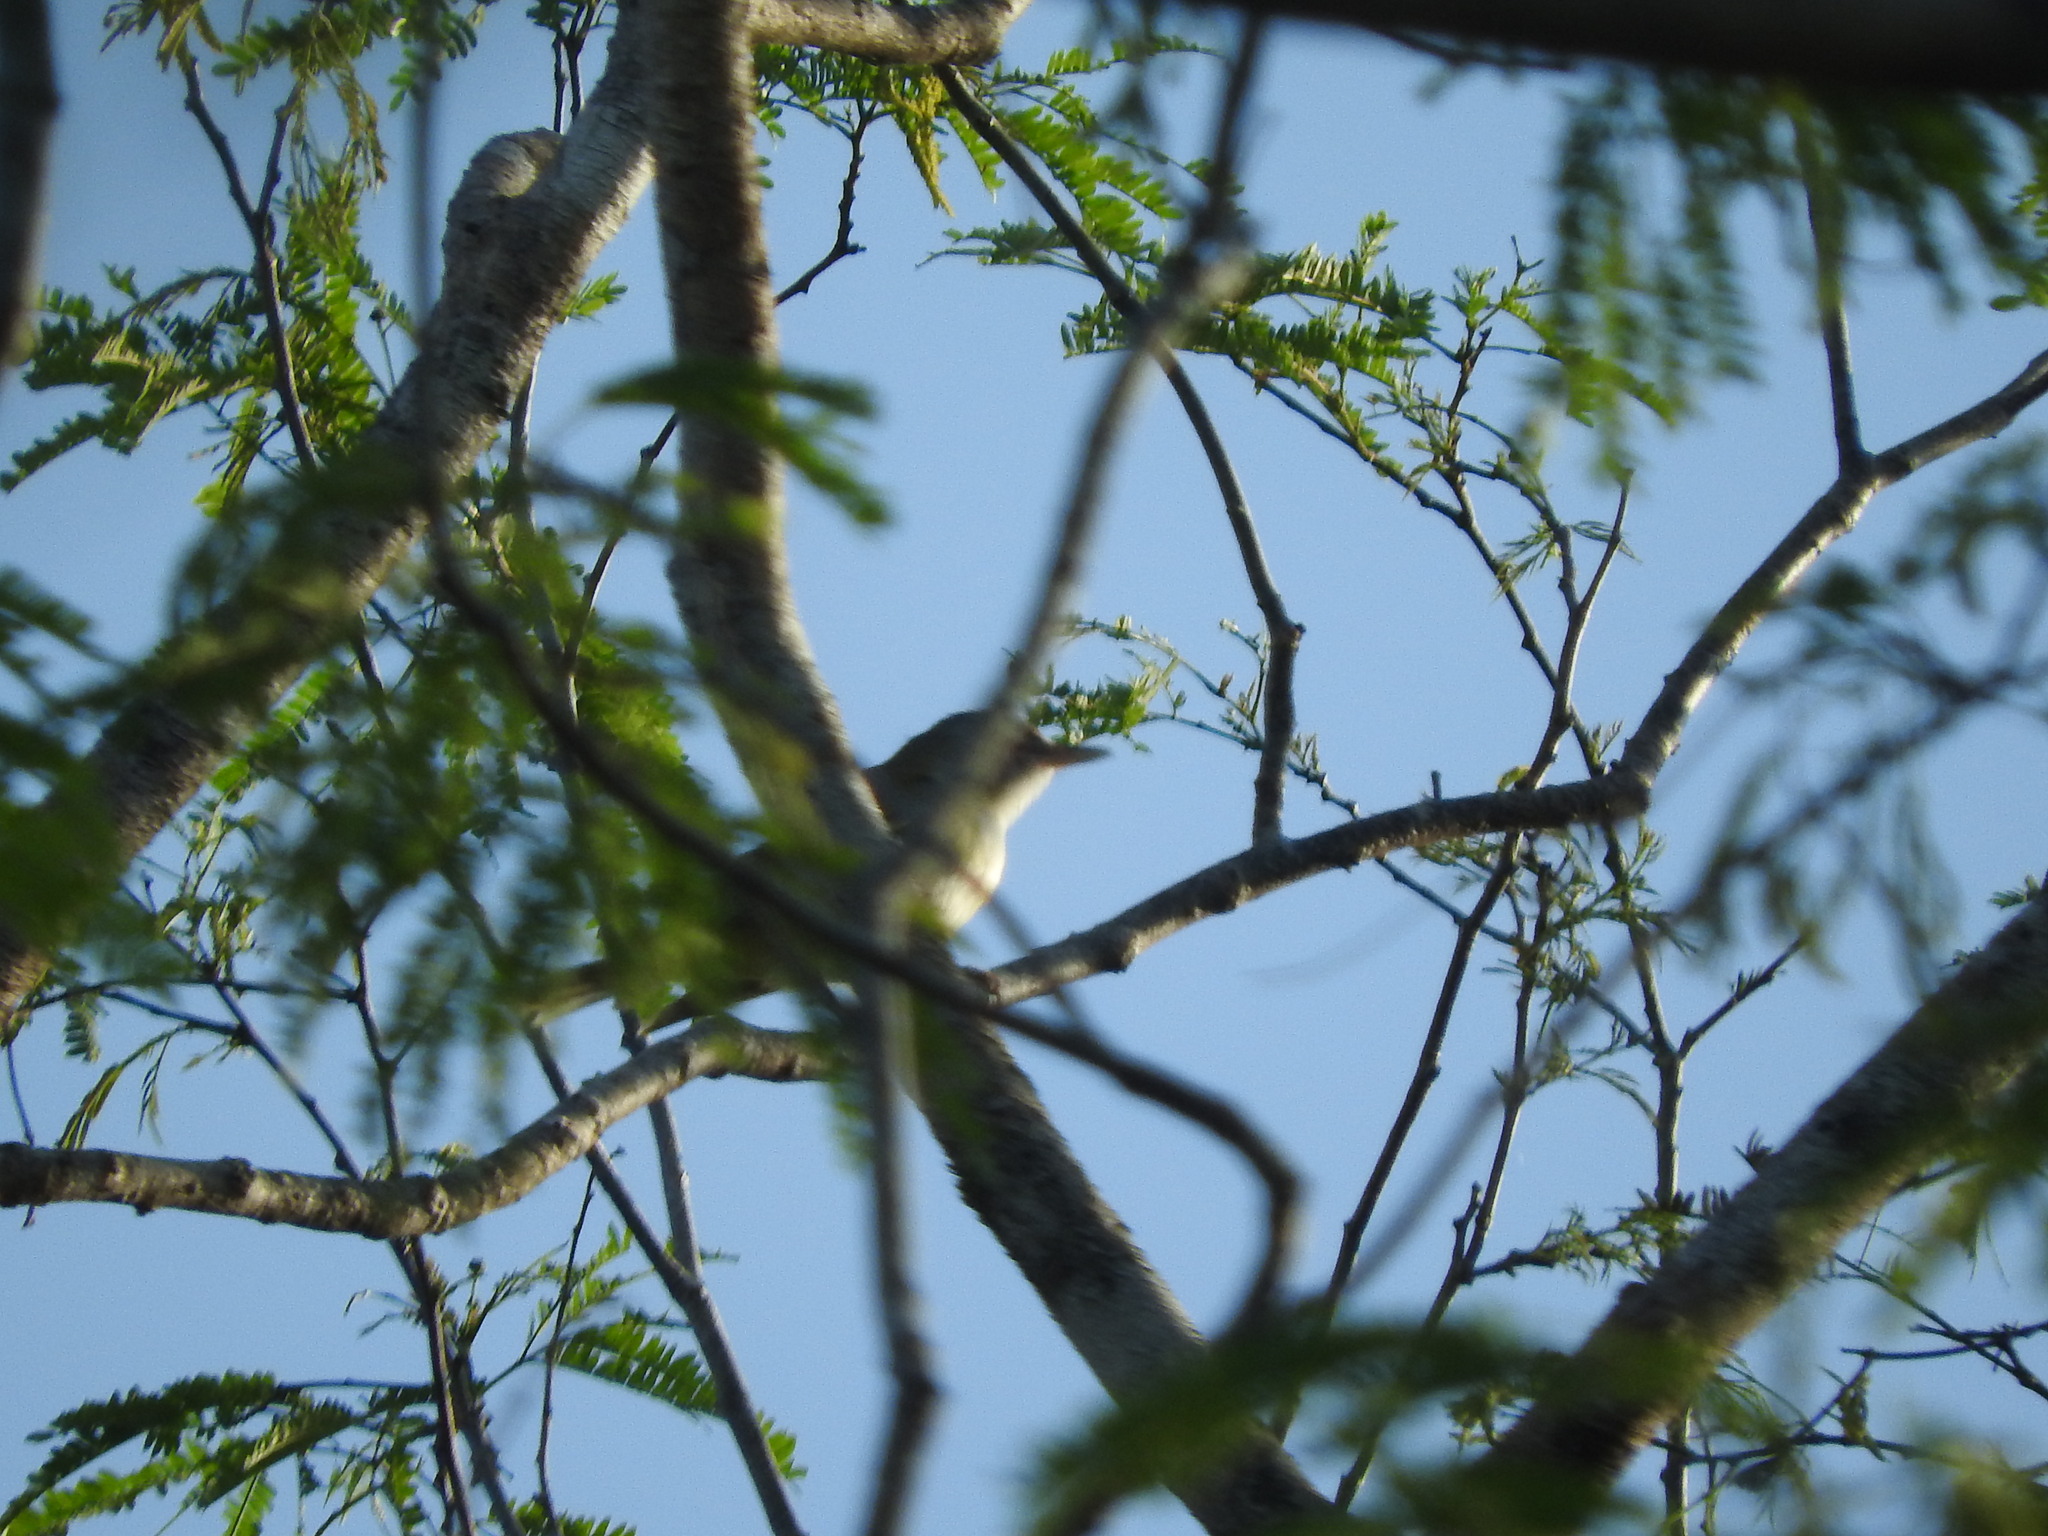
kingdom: Animalia
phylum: Chordata
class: Aves
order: Passeriformes
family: Vireonidae
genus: Vireo
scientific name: Vireo magister
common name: Yucatan vireo
